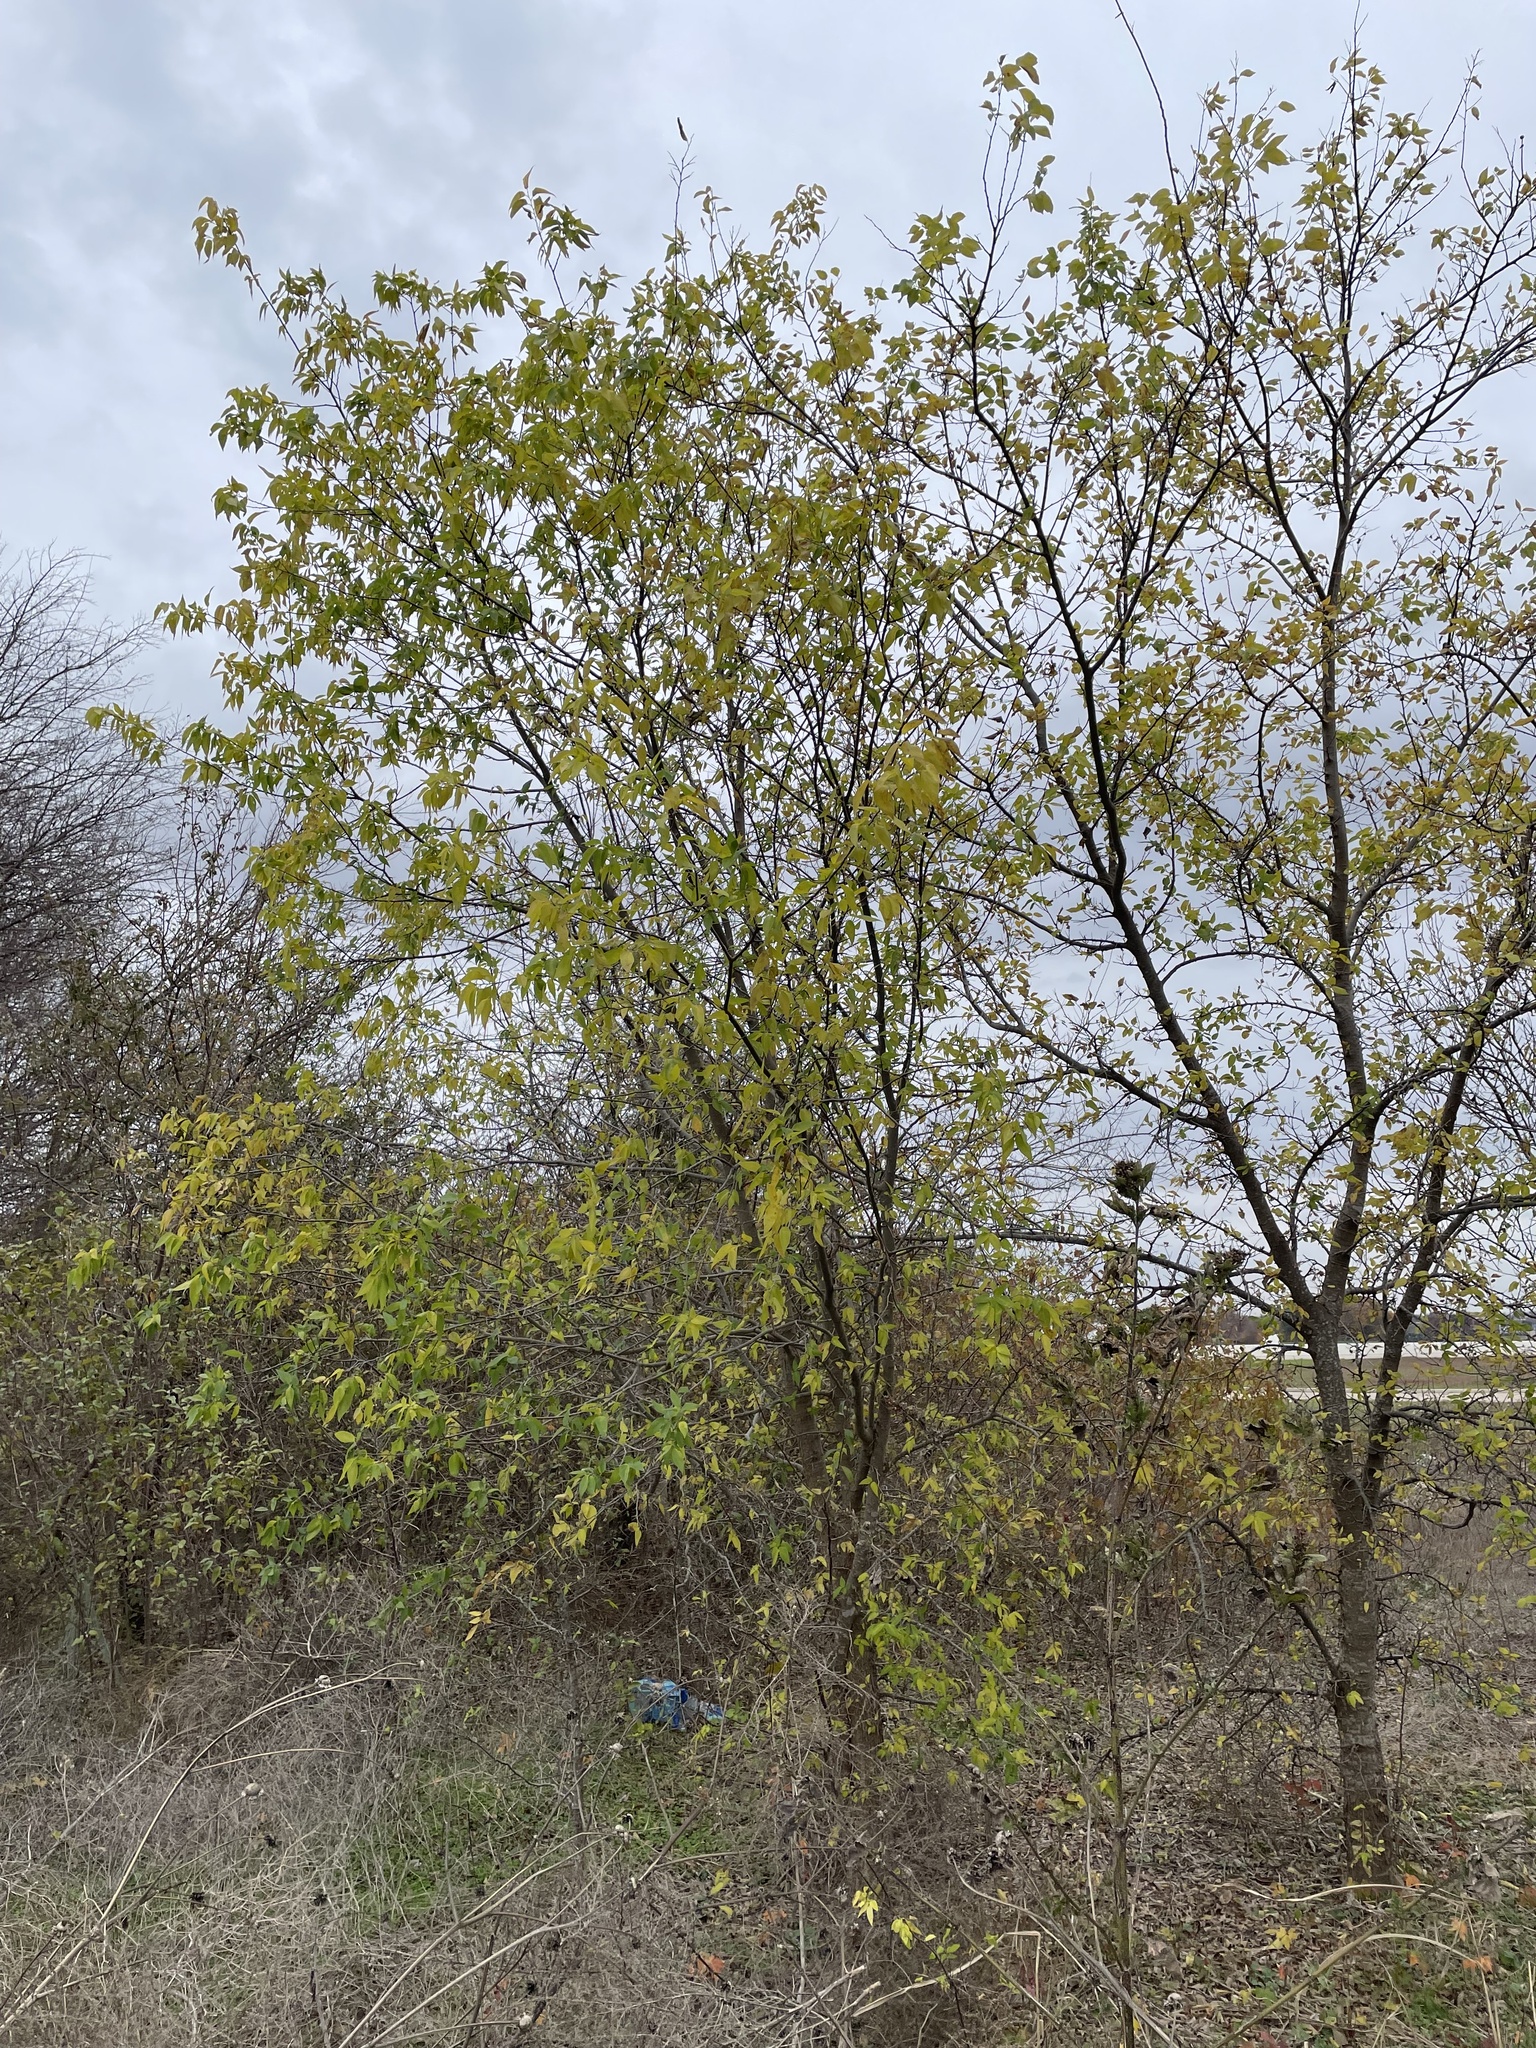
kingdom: Plantae
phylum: Tracheophyta
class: Magnoliopsida
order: Rosales
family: Cannabaceae
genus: Celtis
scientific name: Celtis laevigata
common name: Sugarberry
